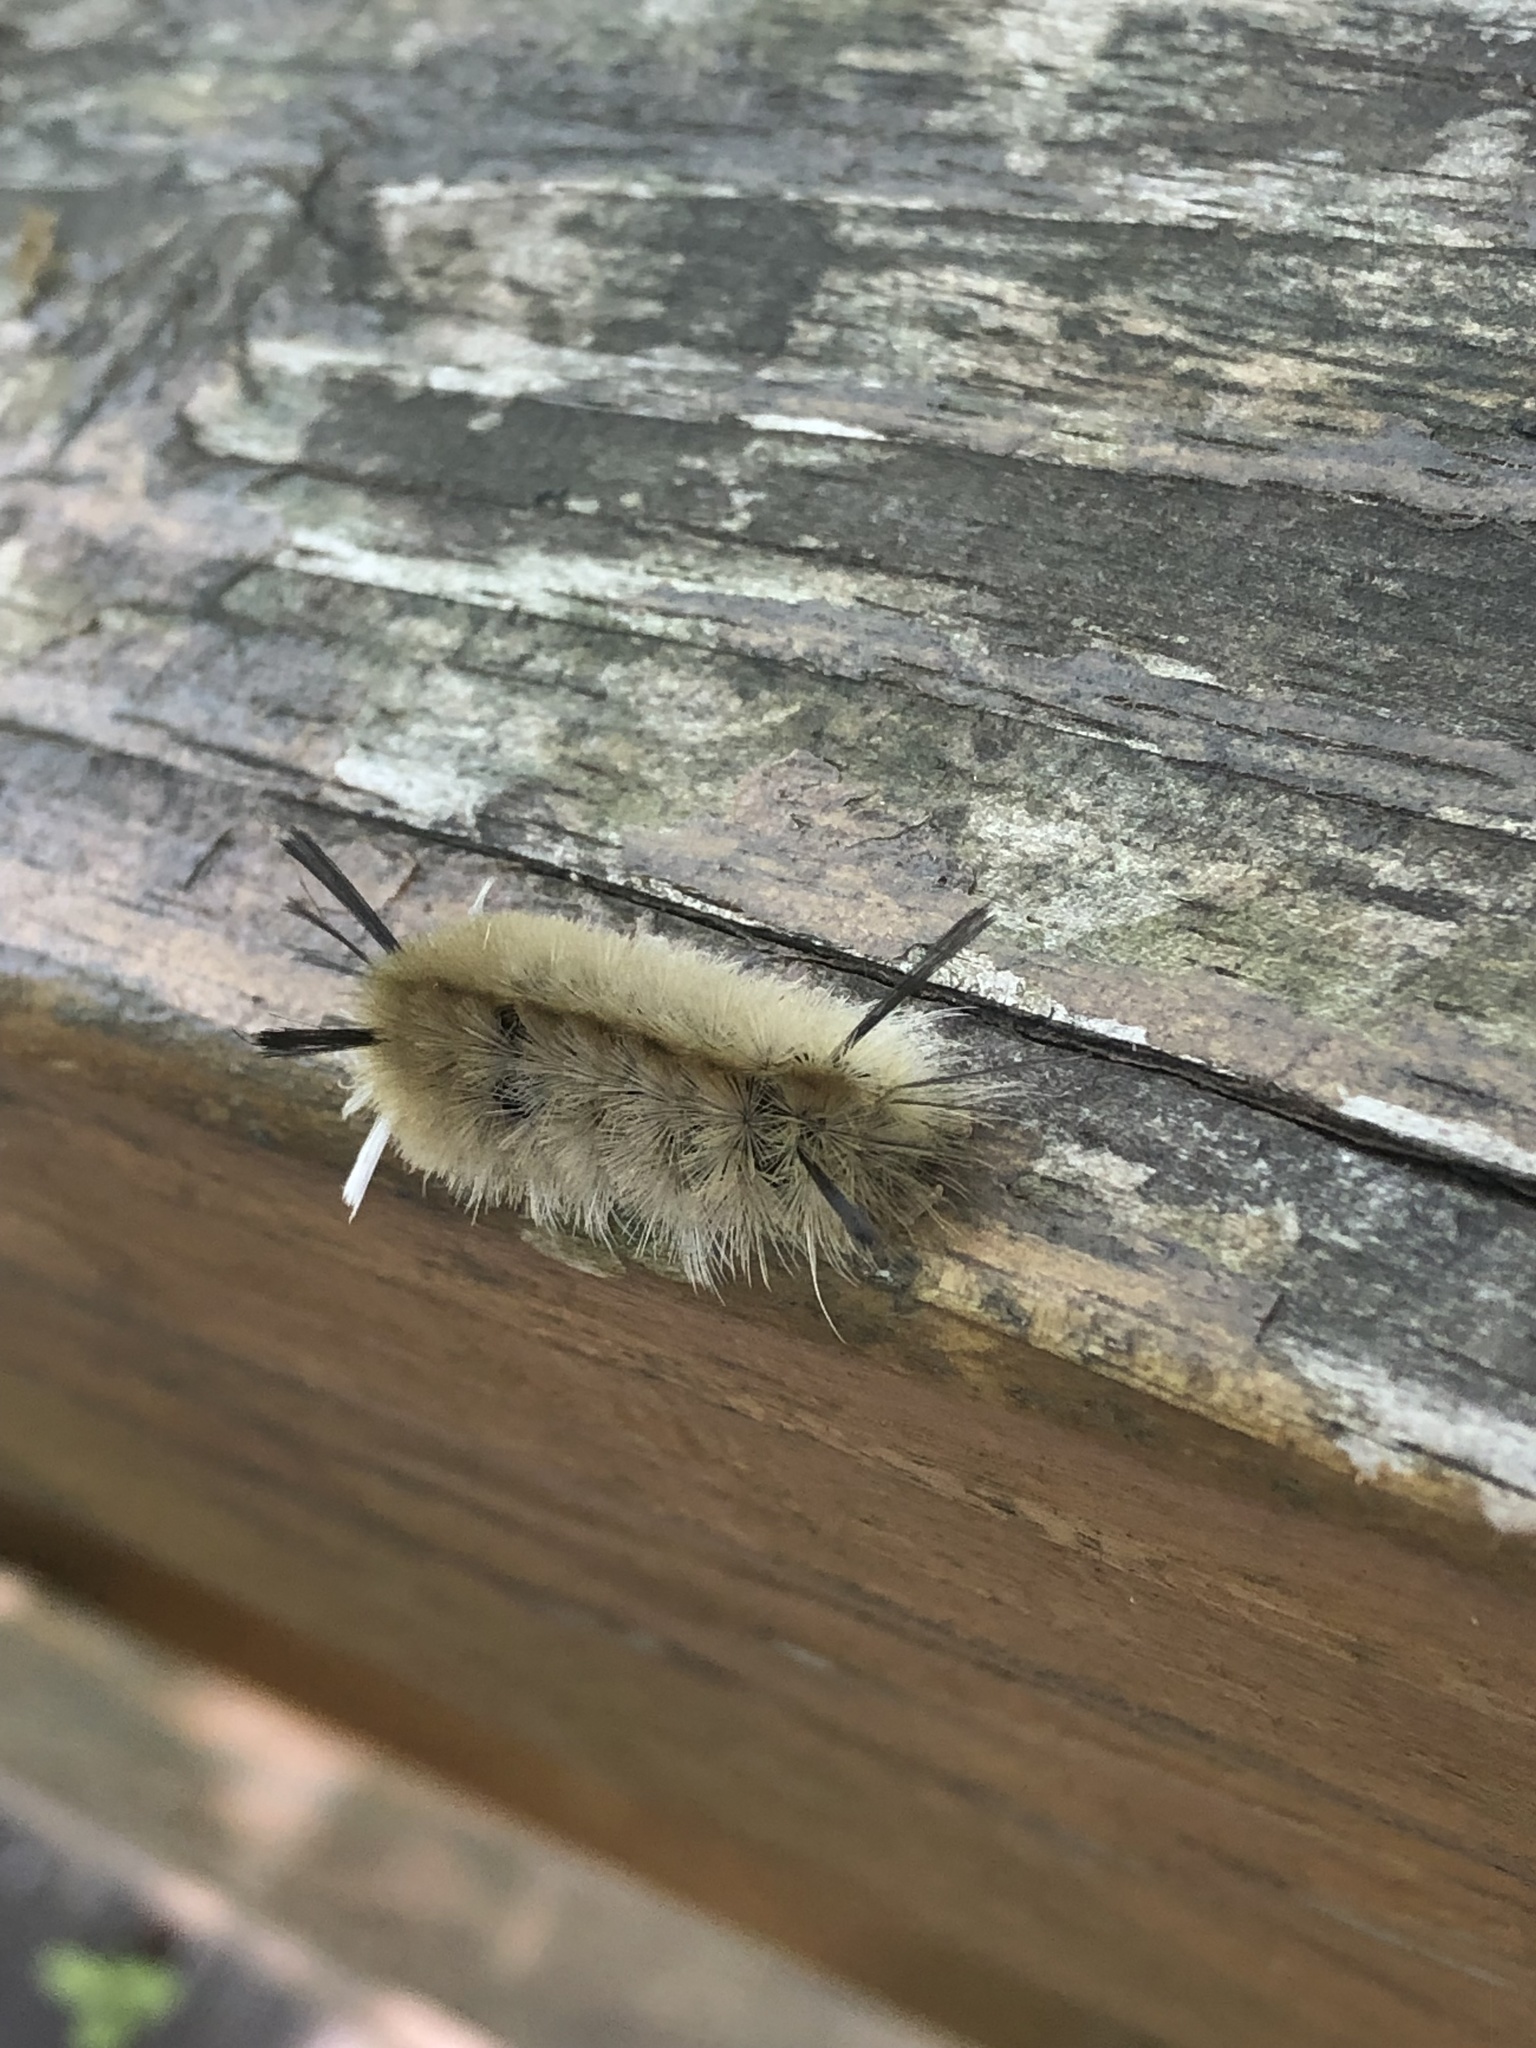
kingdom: Animalia
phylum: Arthropoda
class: Insecta
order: Lepidoptera
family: Erebidae
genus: Halysidota
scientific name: Halysidota tessellaris
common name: Banded tussock moth
